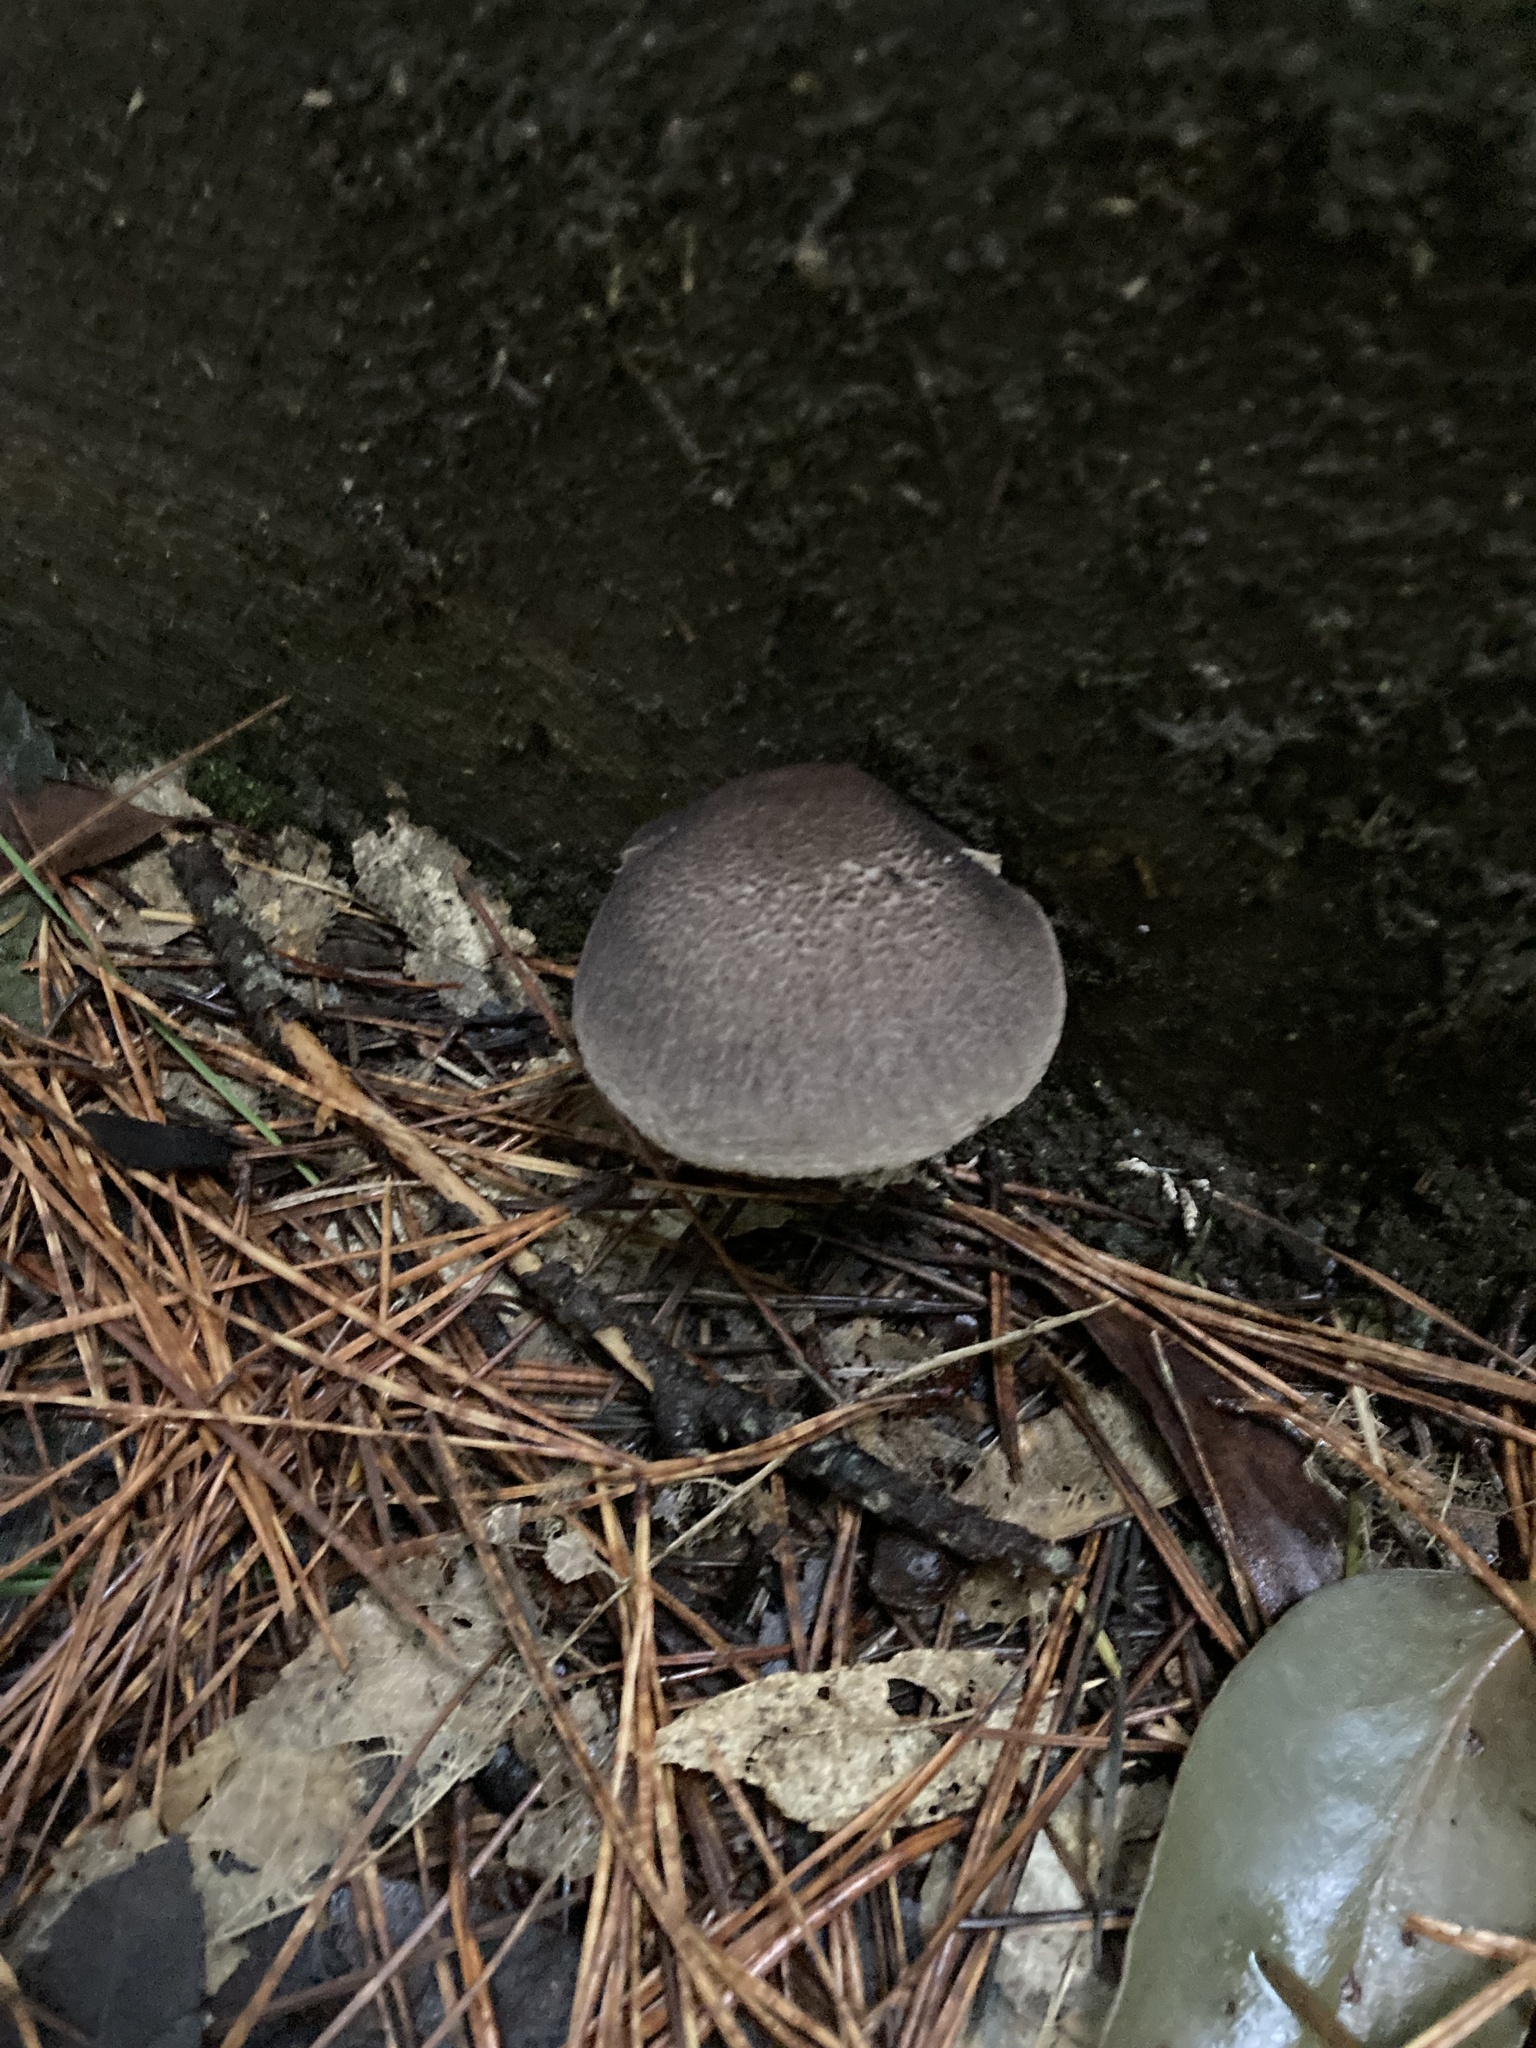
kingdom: Fungi
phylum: Basidiomycota
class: Agaricomycetes
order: Agaricales
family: Tricholomataceae
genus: Tricholoma
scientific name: Tricholoma terreum
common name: Grey knight
